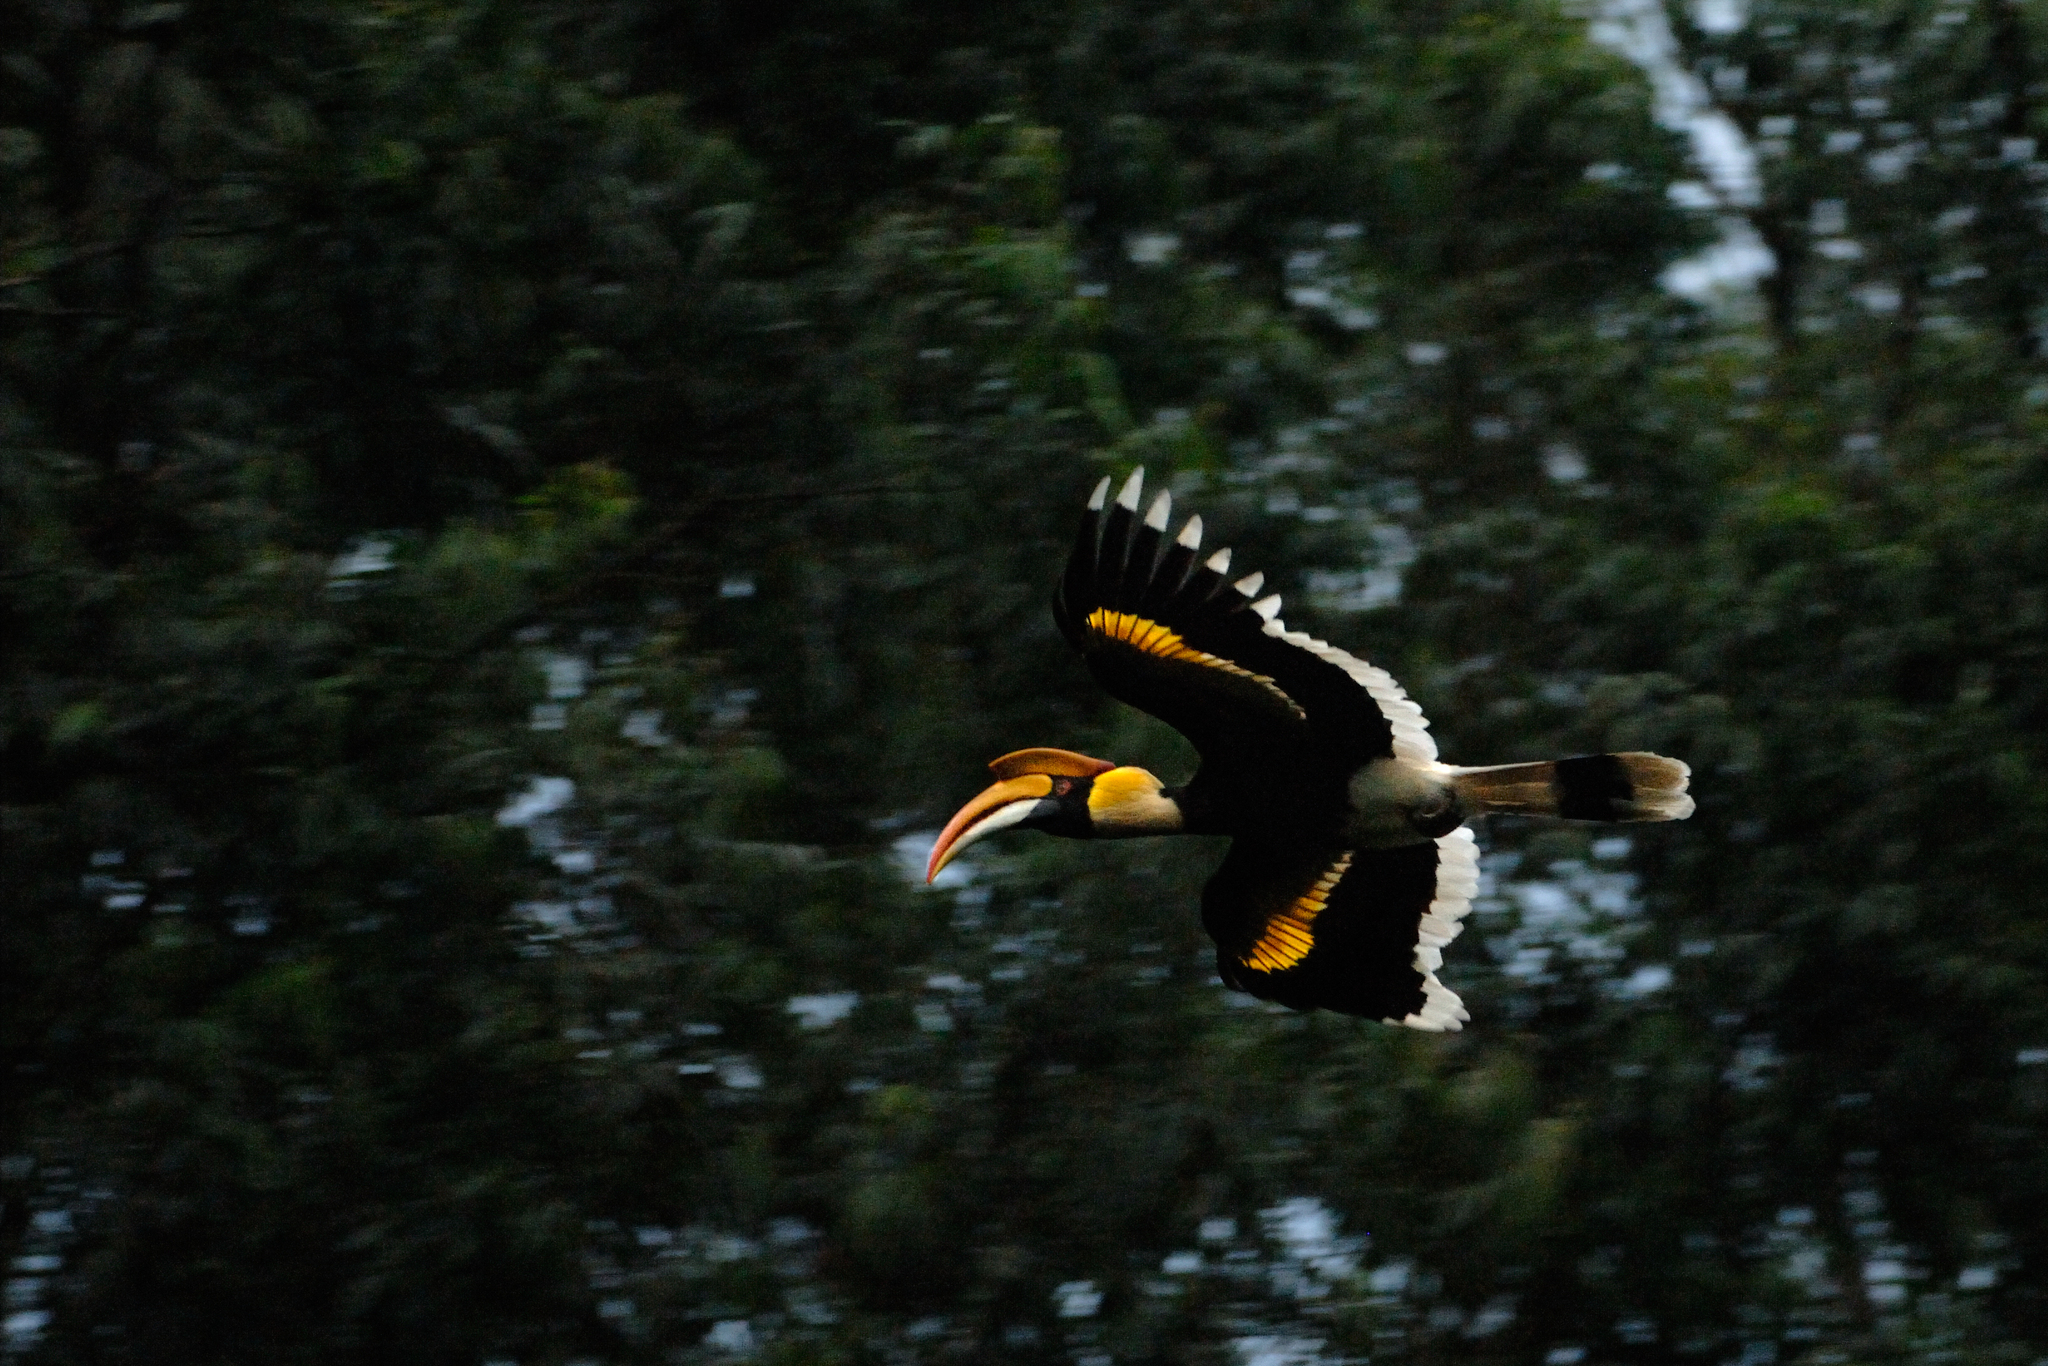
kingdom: Animalia
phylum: Chordata
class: Aves
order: Bucerotiformes
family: Bucerotidae
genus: Buceros
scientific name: Buceros bicornis
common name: Great hornbill
